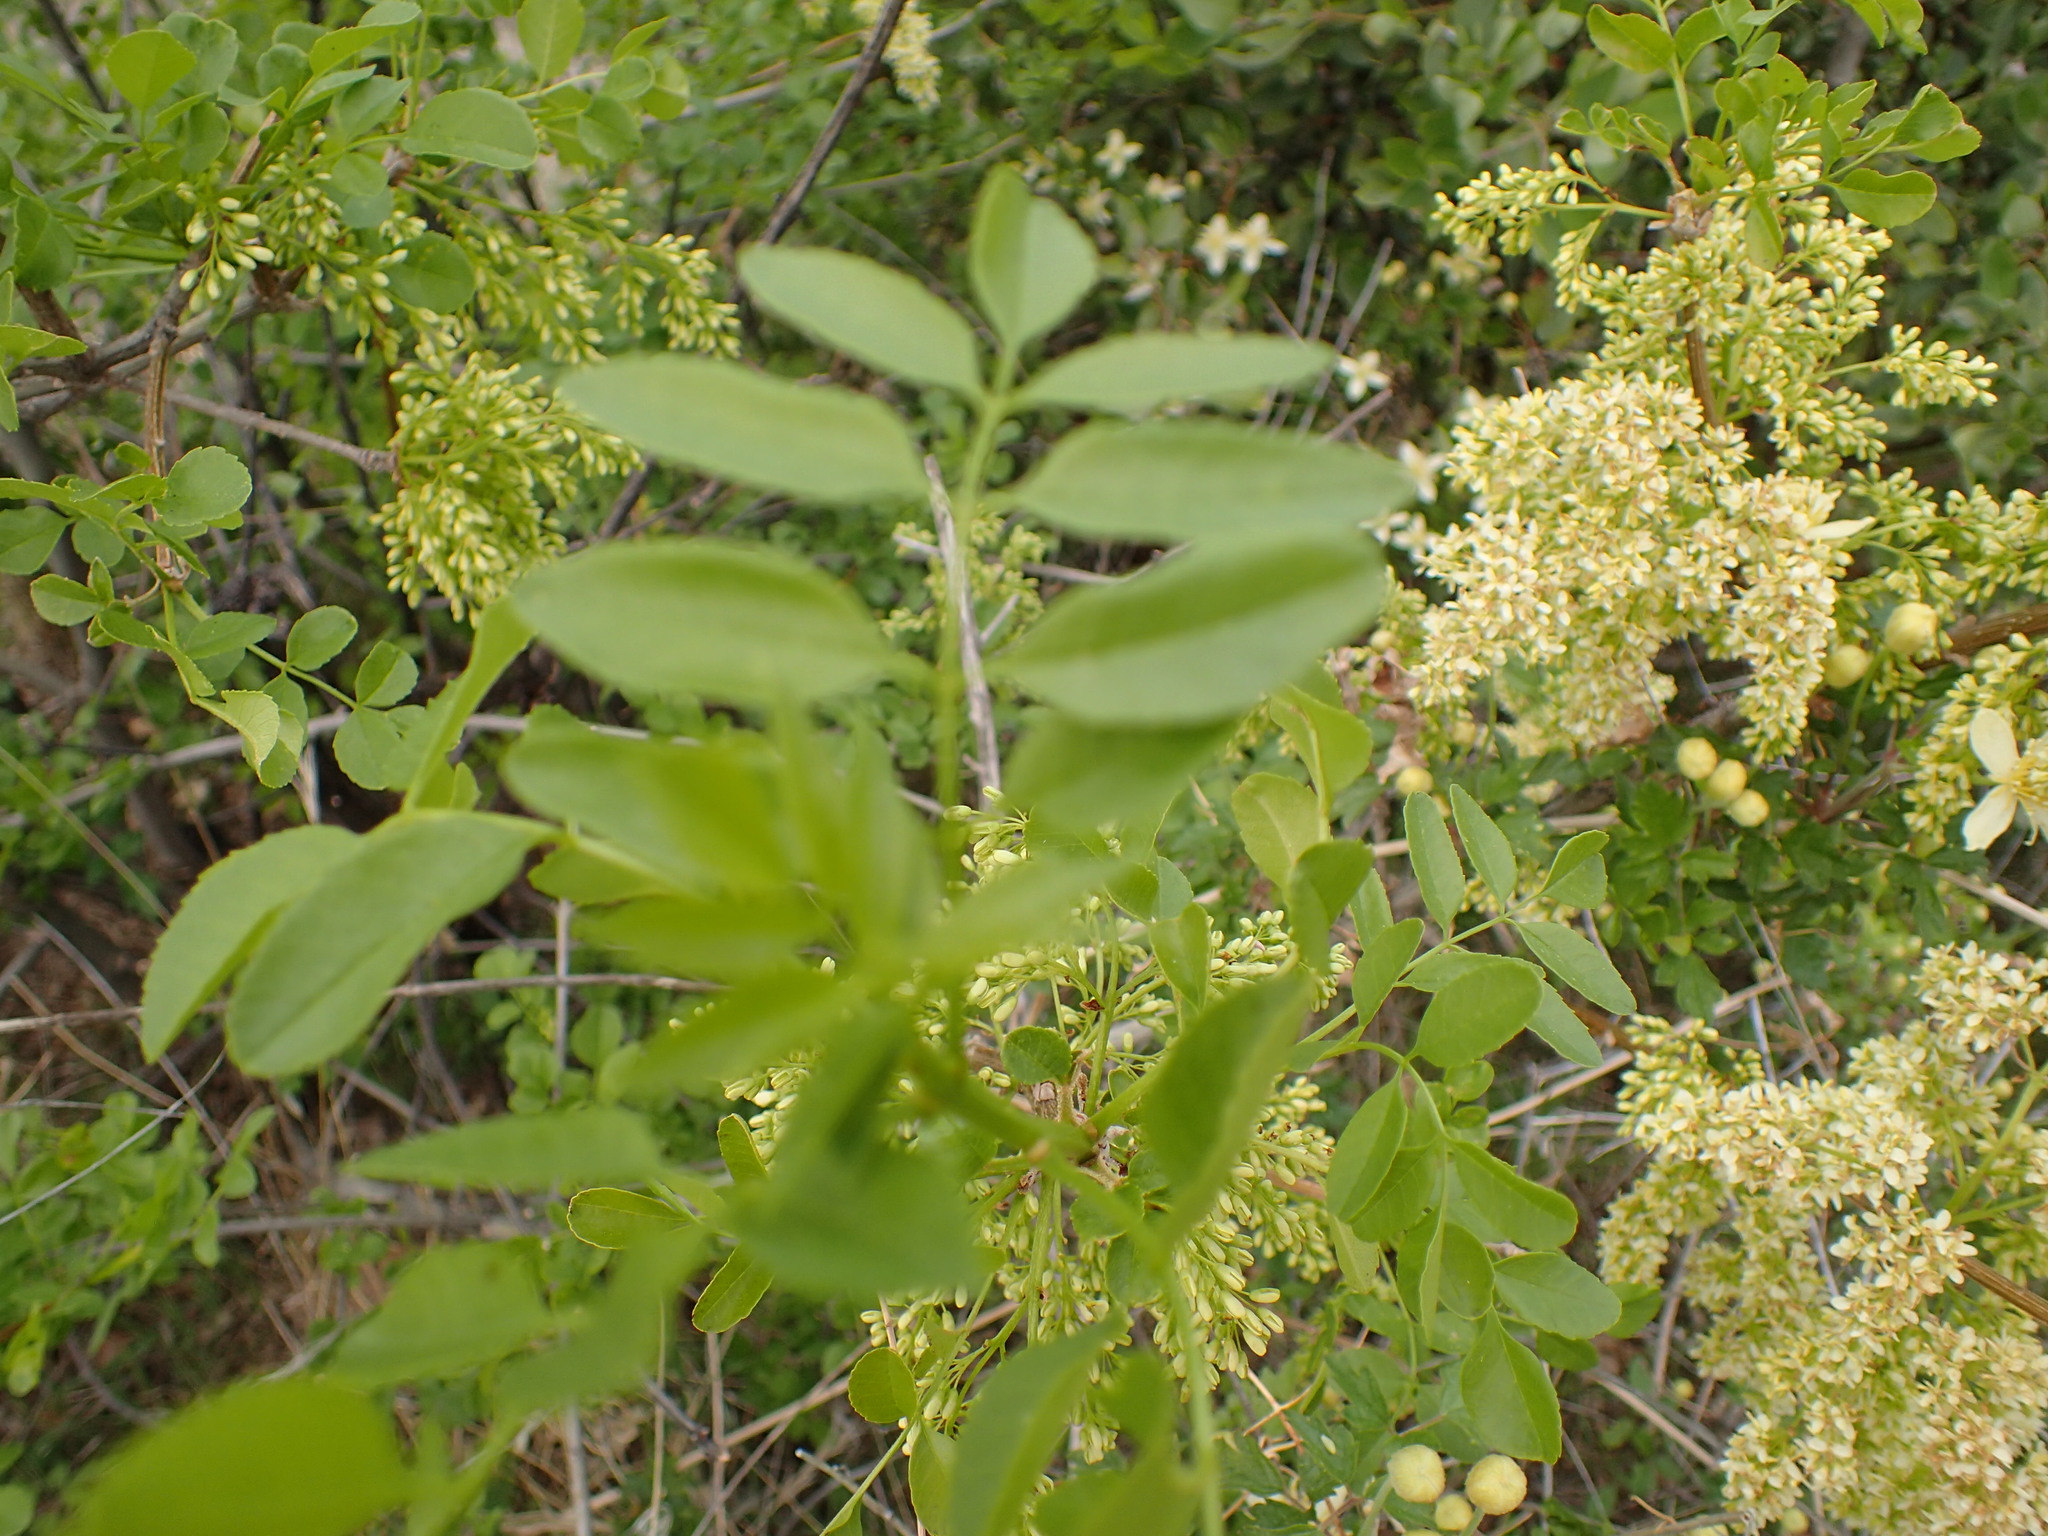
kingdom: Plantae
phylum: Tracheophyta
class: Magnoliopsida
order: Lamiales
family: Oleaceae
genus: Fraxinus
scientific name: Fraxinus dipetala
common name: California ash
